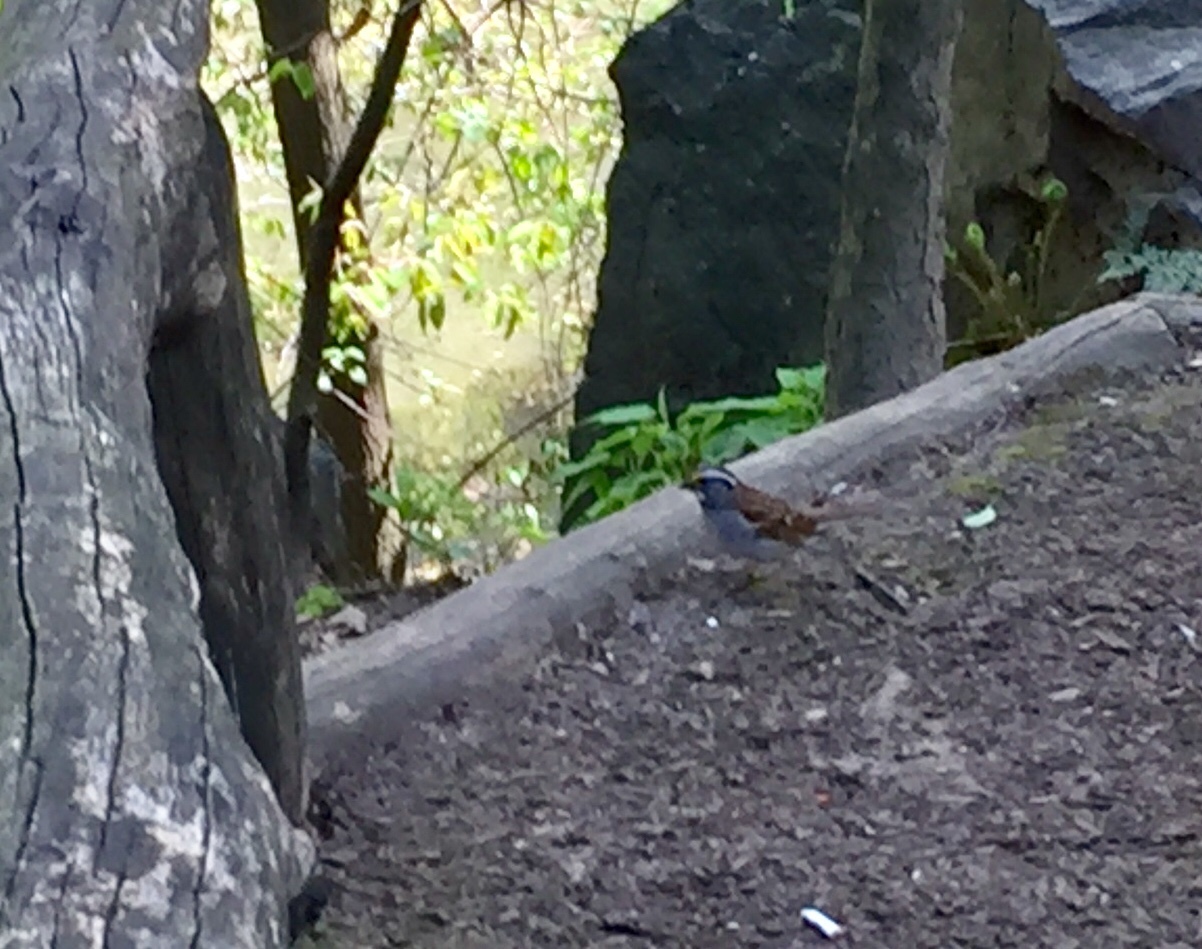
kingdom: Animalia
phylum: Chordata
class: Aves
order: Passeriformes
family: Passerellidae
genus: Zonotrichia
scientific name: Zonotrichia albicollis
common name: White-throated sparrow
